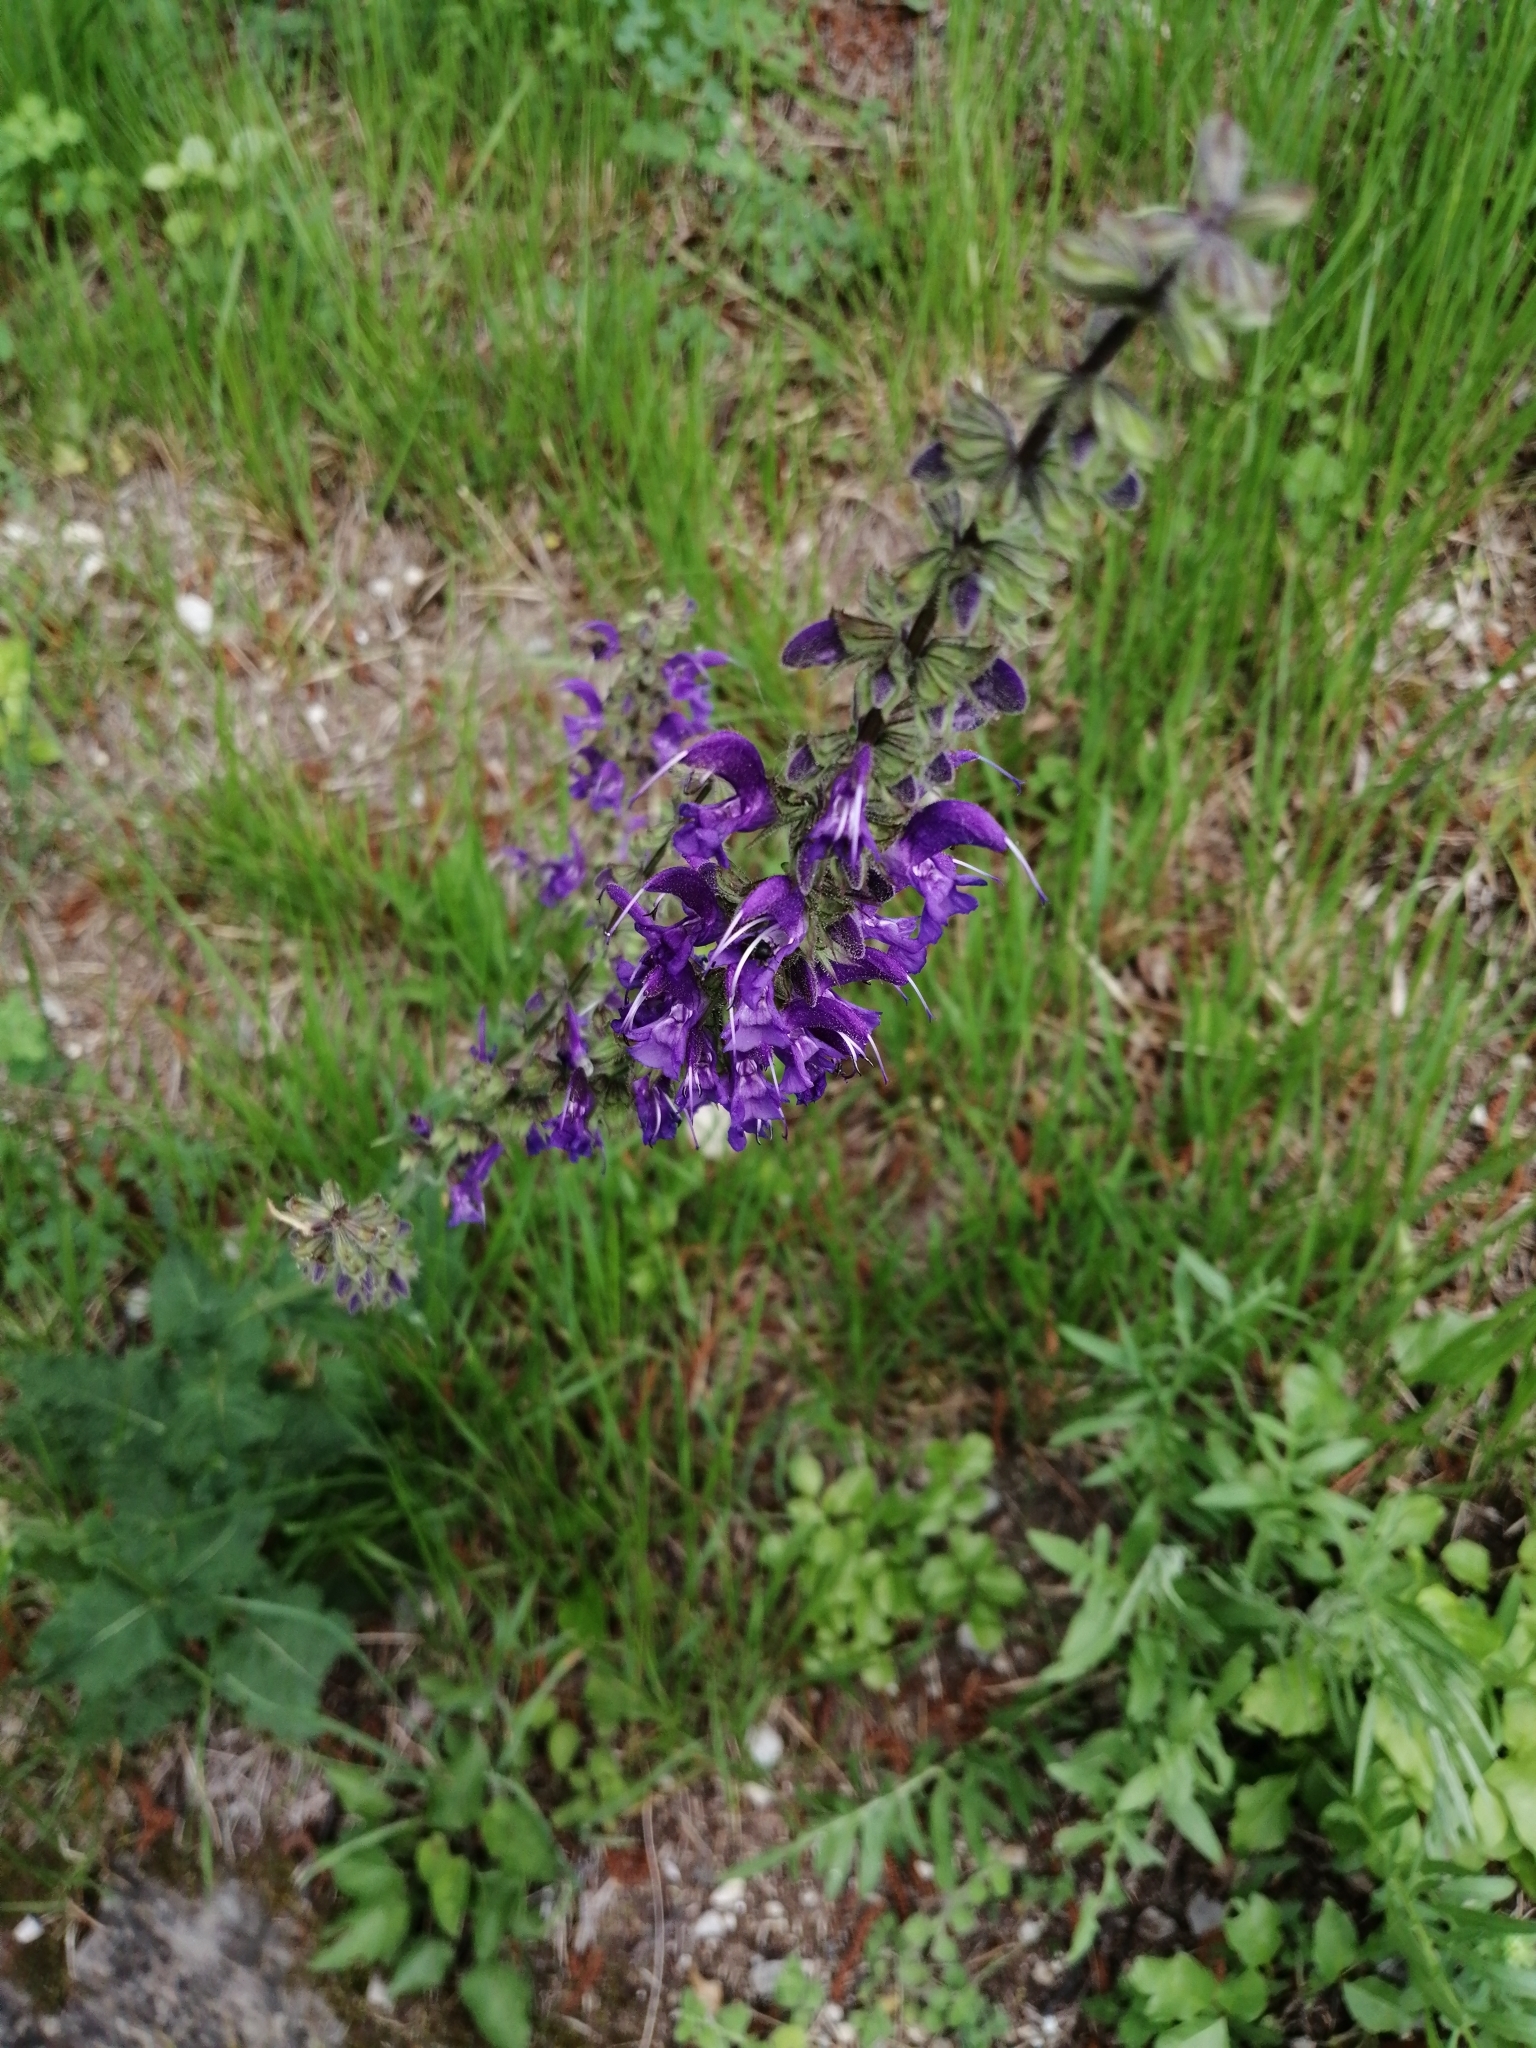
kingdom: Plantae
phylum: Tracheophyta
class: Magnoliopsida
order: Lamiales
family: Lamiaceae
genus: Salvia
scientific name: Salvia pratensis
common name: Meadow sage
